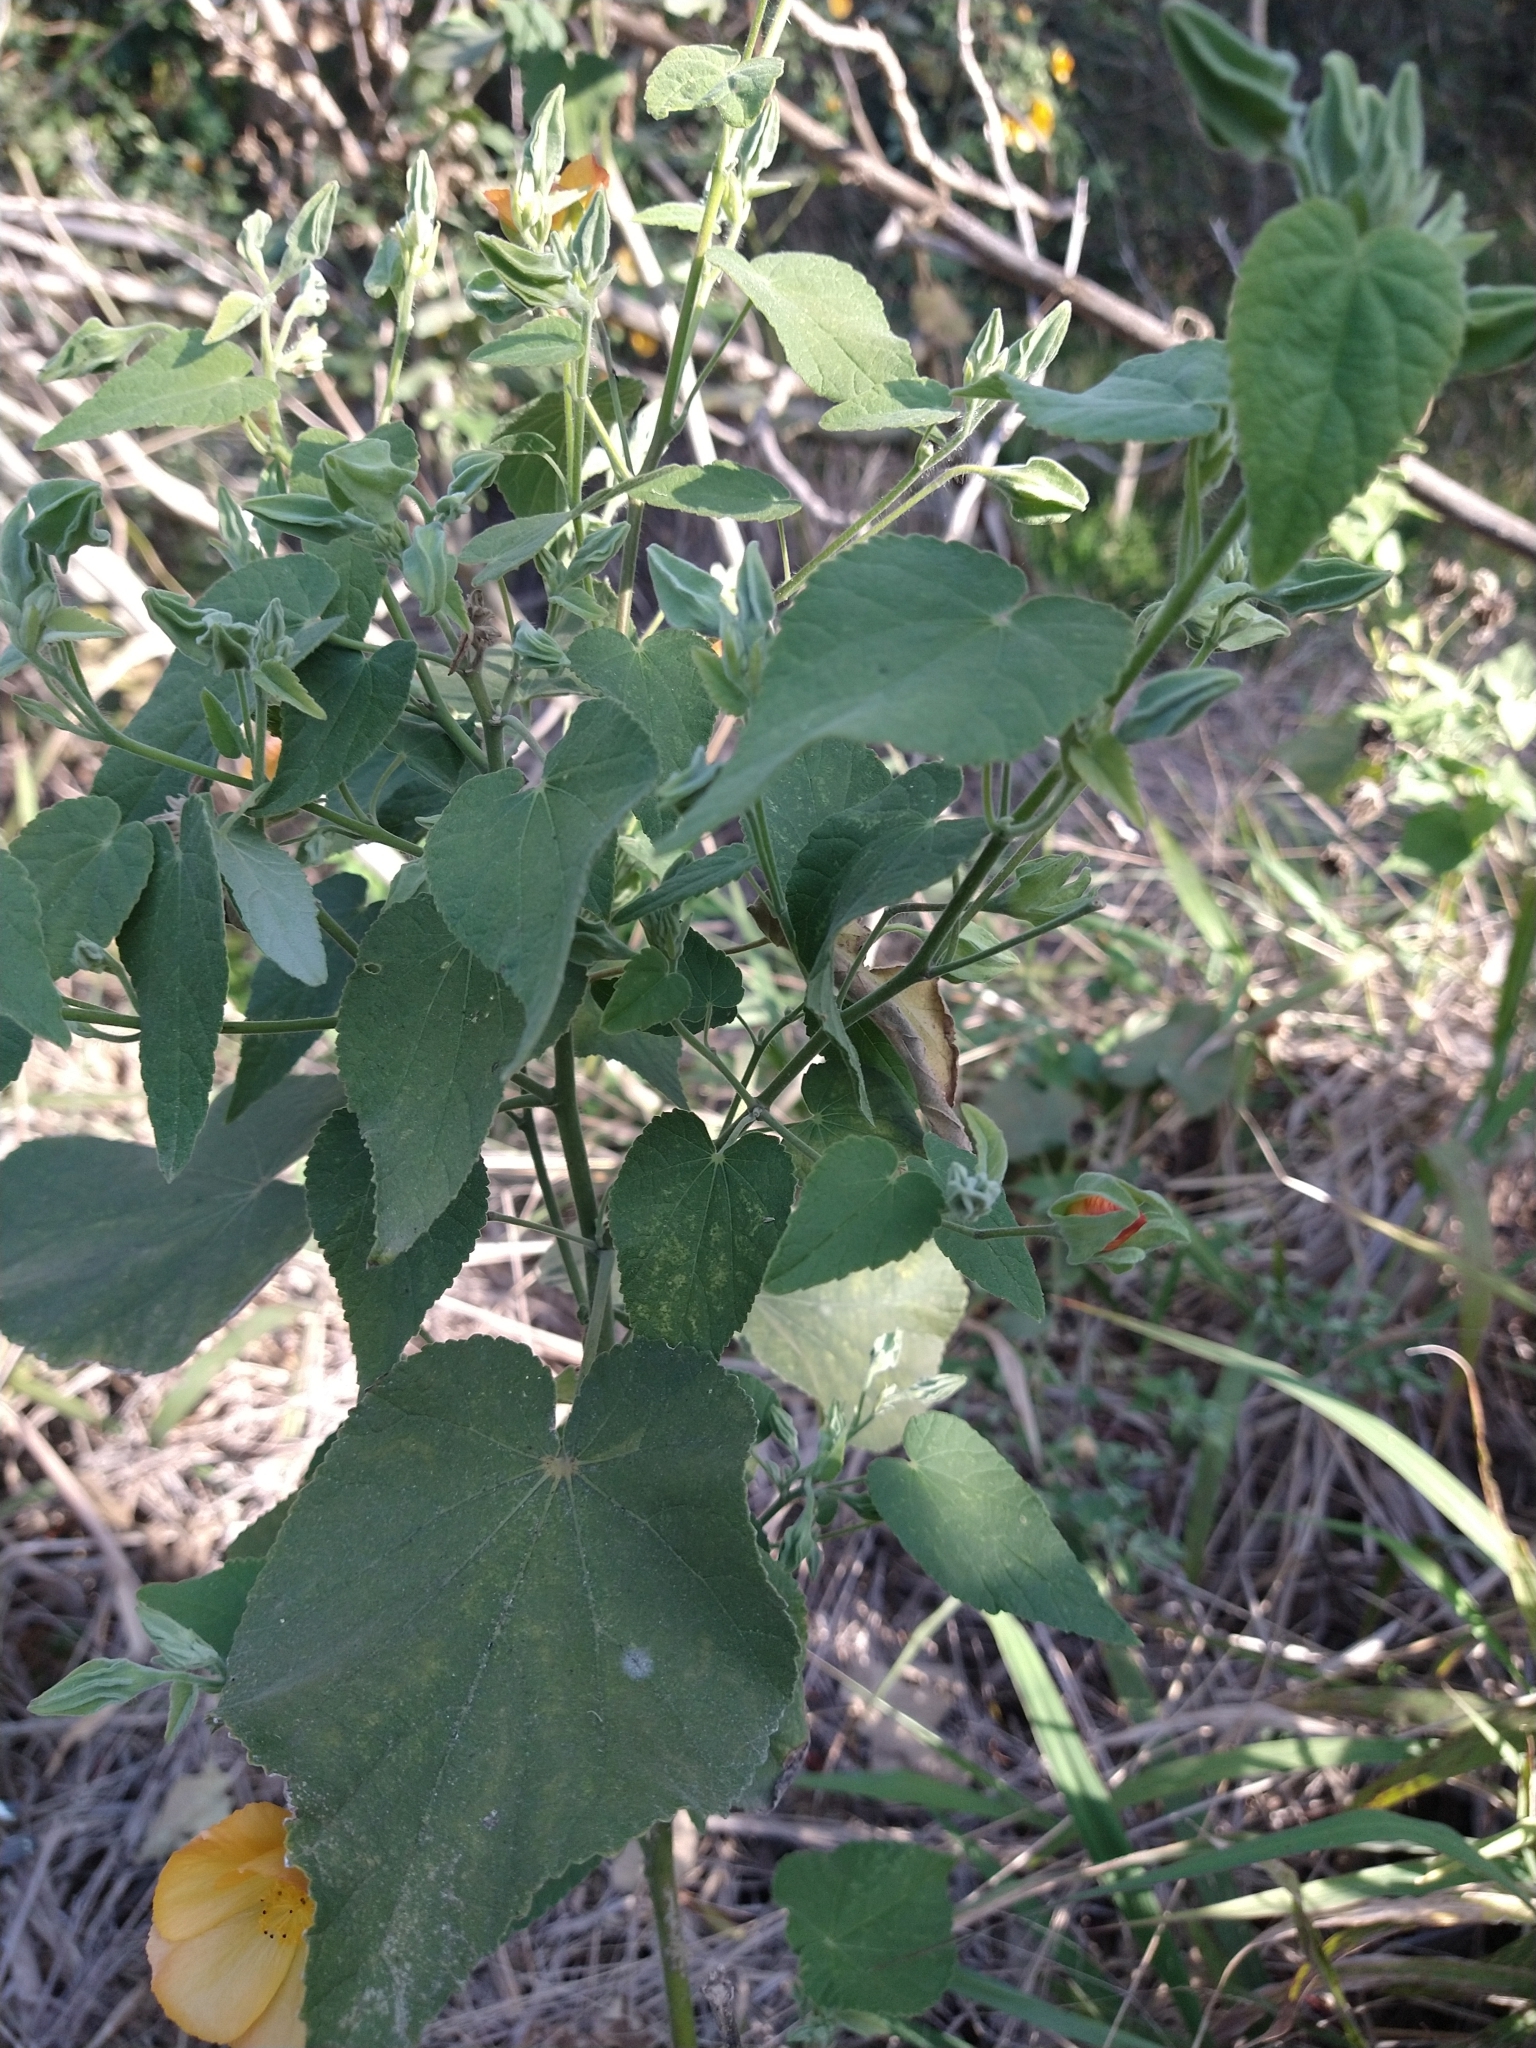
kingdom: Plantae
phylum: Tracheophyta
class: Magnoliopsida
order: Malvales
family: Malvaceae
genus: Abutilon
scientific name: Abutilon grandifolium
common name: Hairy abutilon
